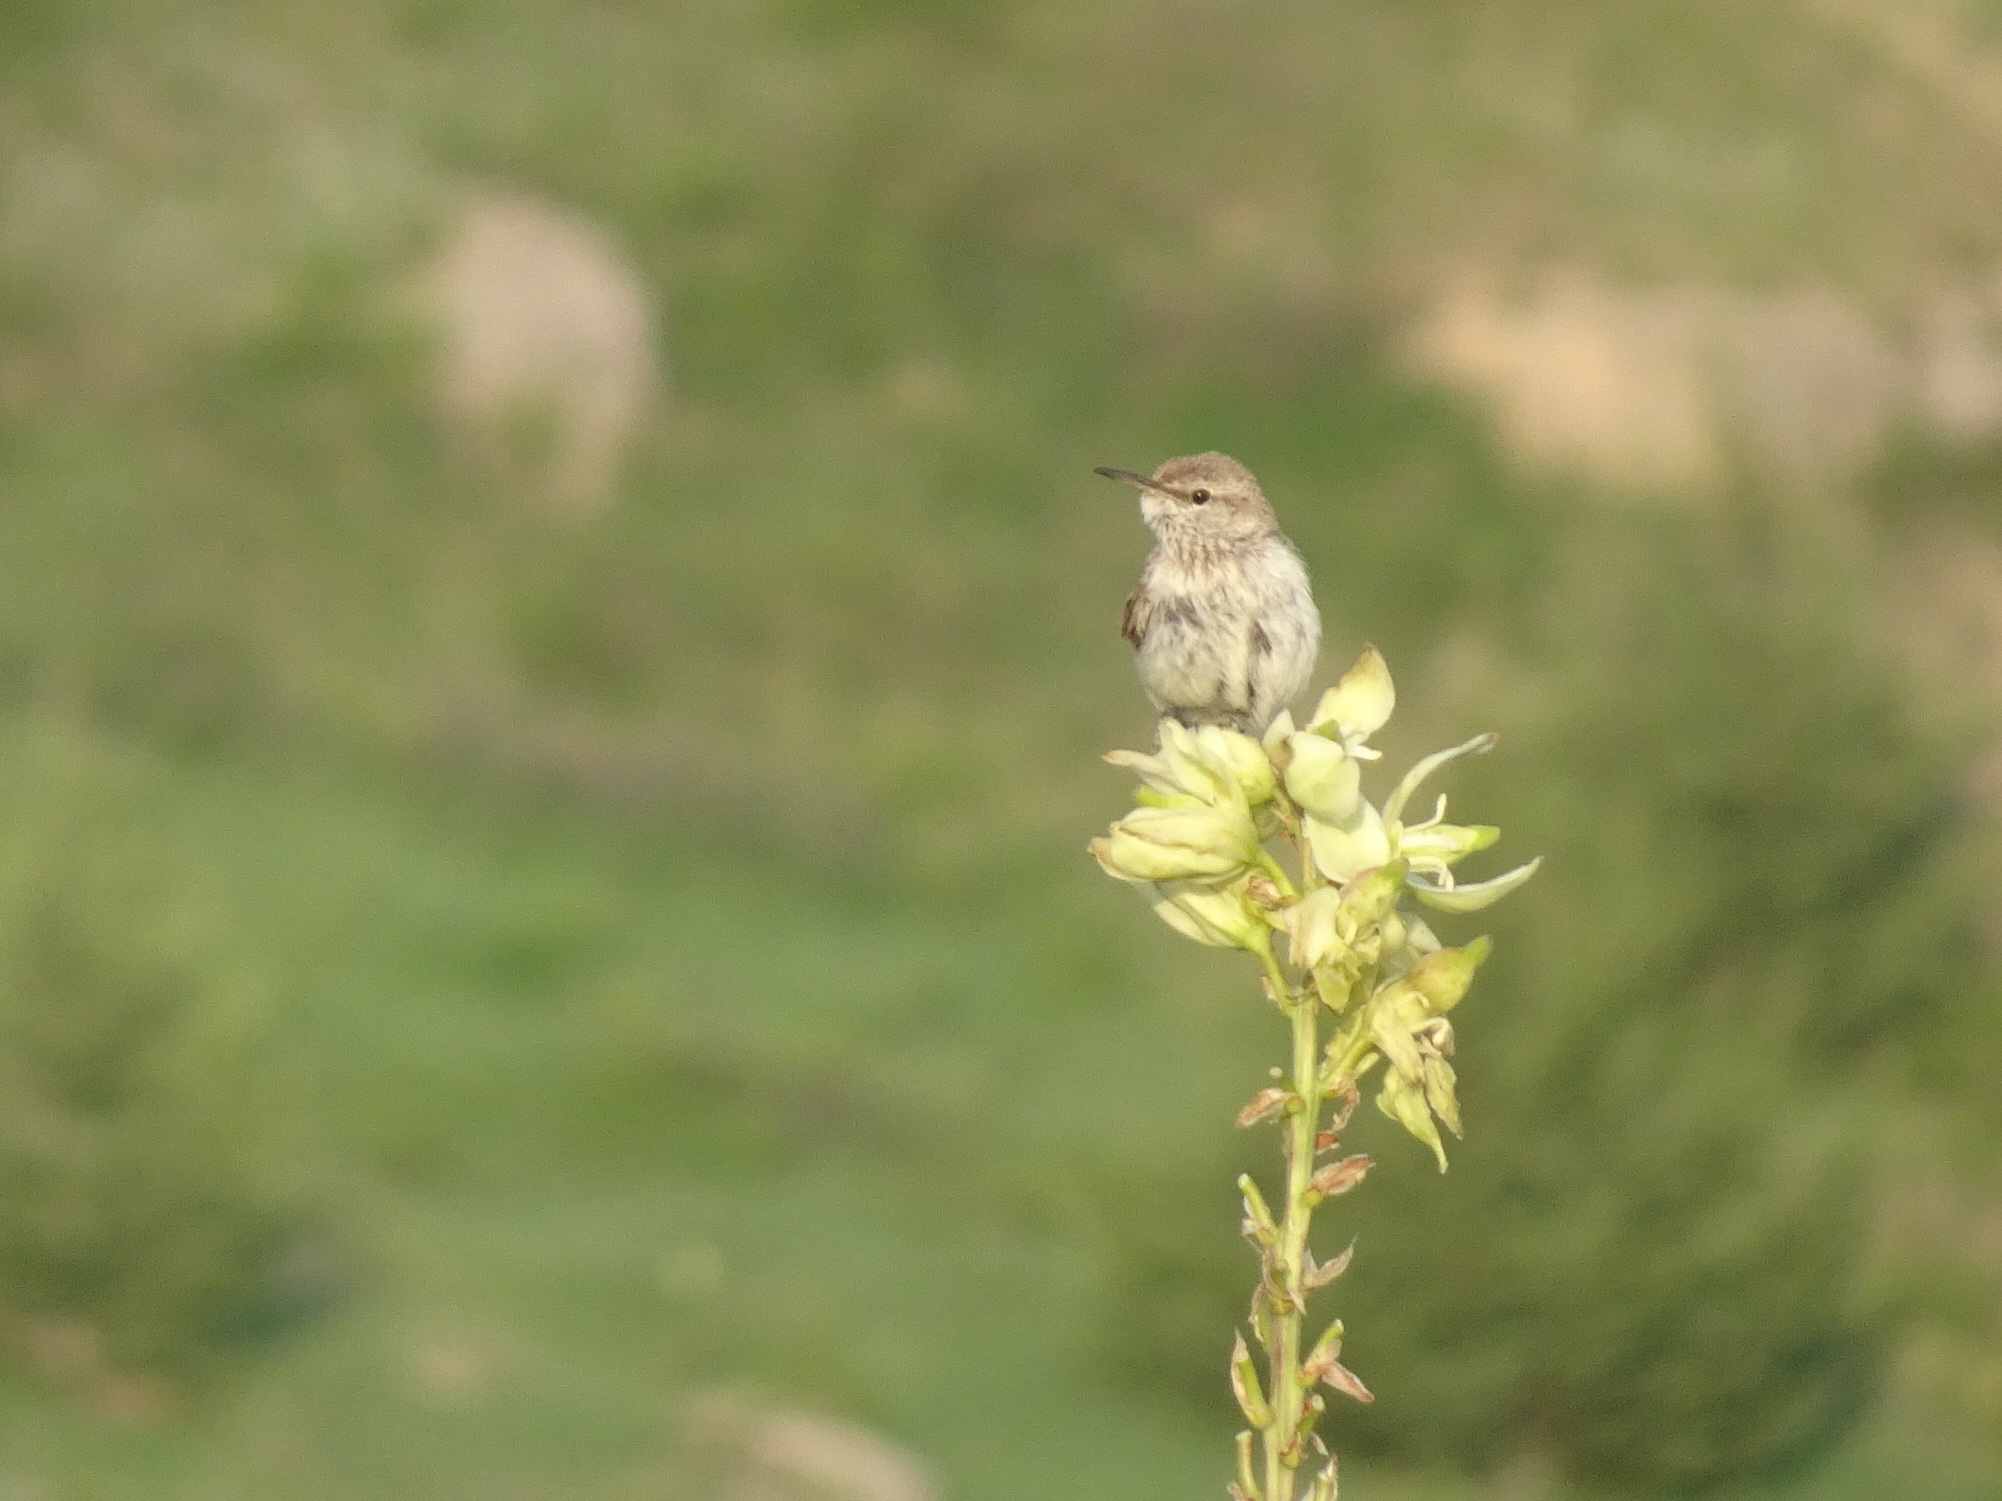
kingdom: Animalia
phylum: Chordata
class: Aves
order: Passeriformes
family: Troglodytidae
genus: Salpinctes
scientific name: Salpinctes obsoletus
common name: Rock wren
